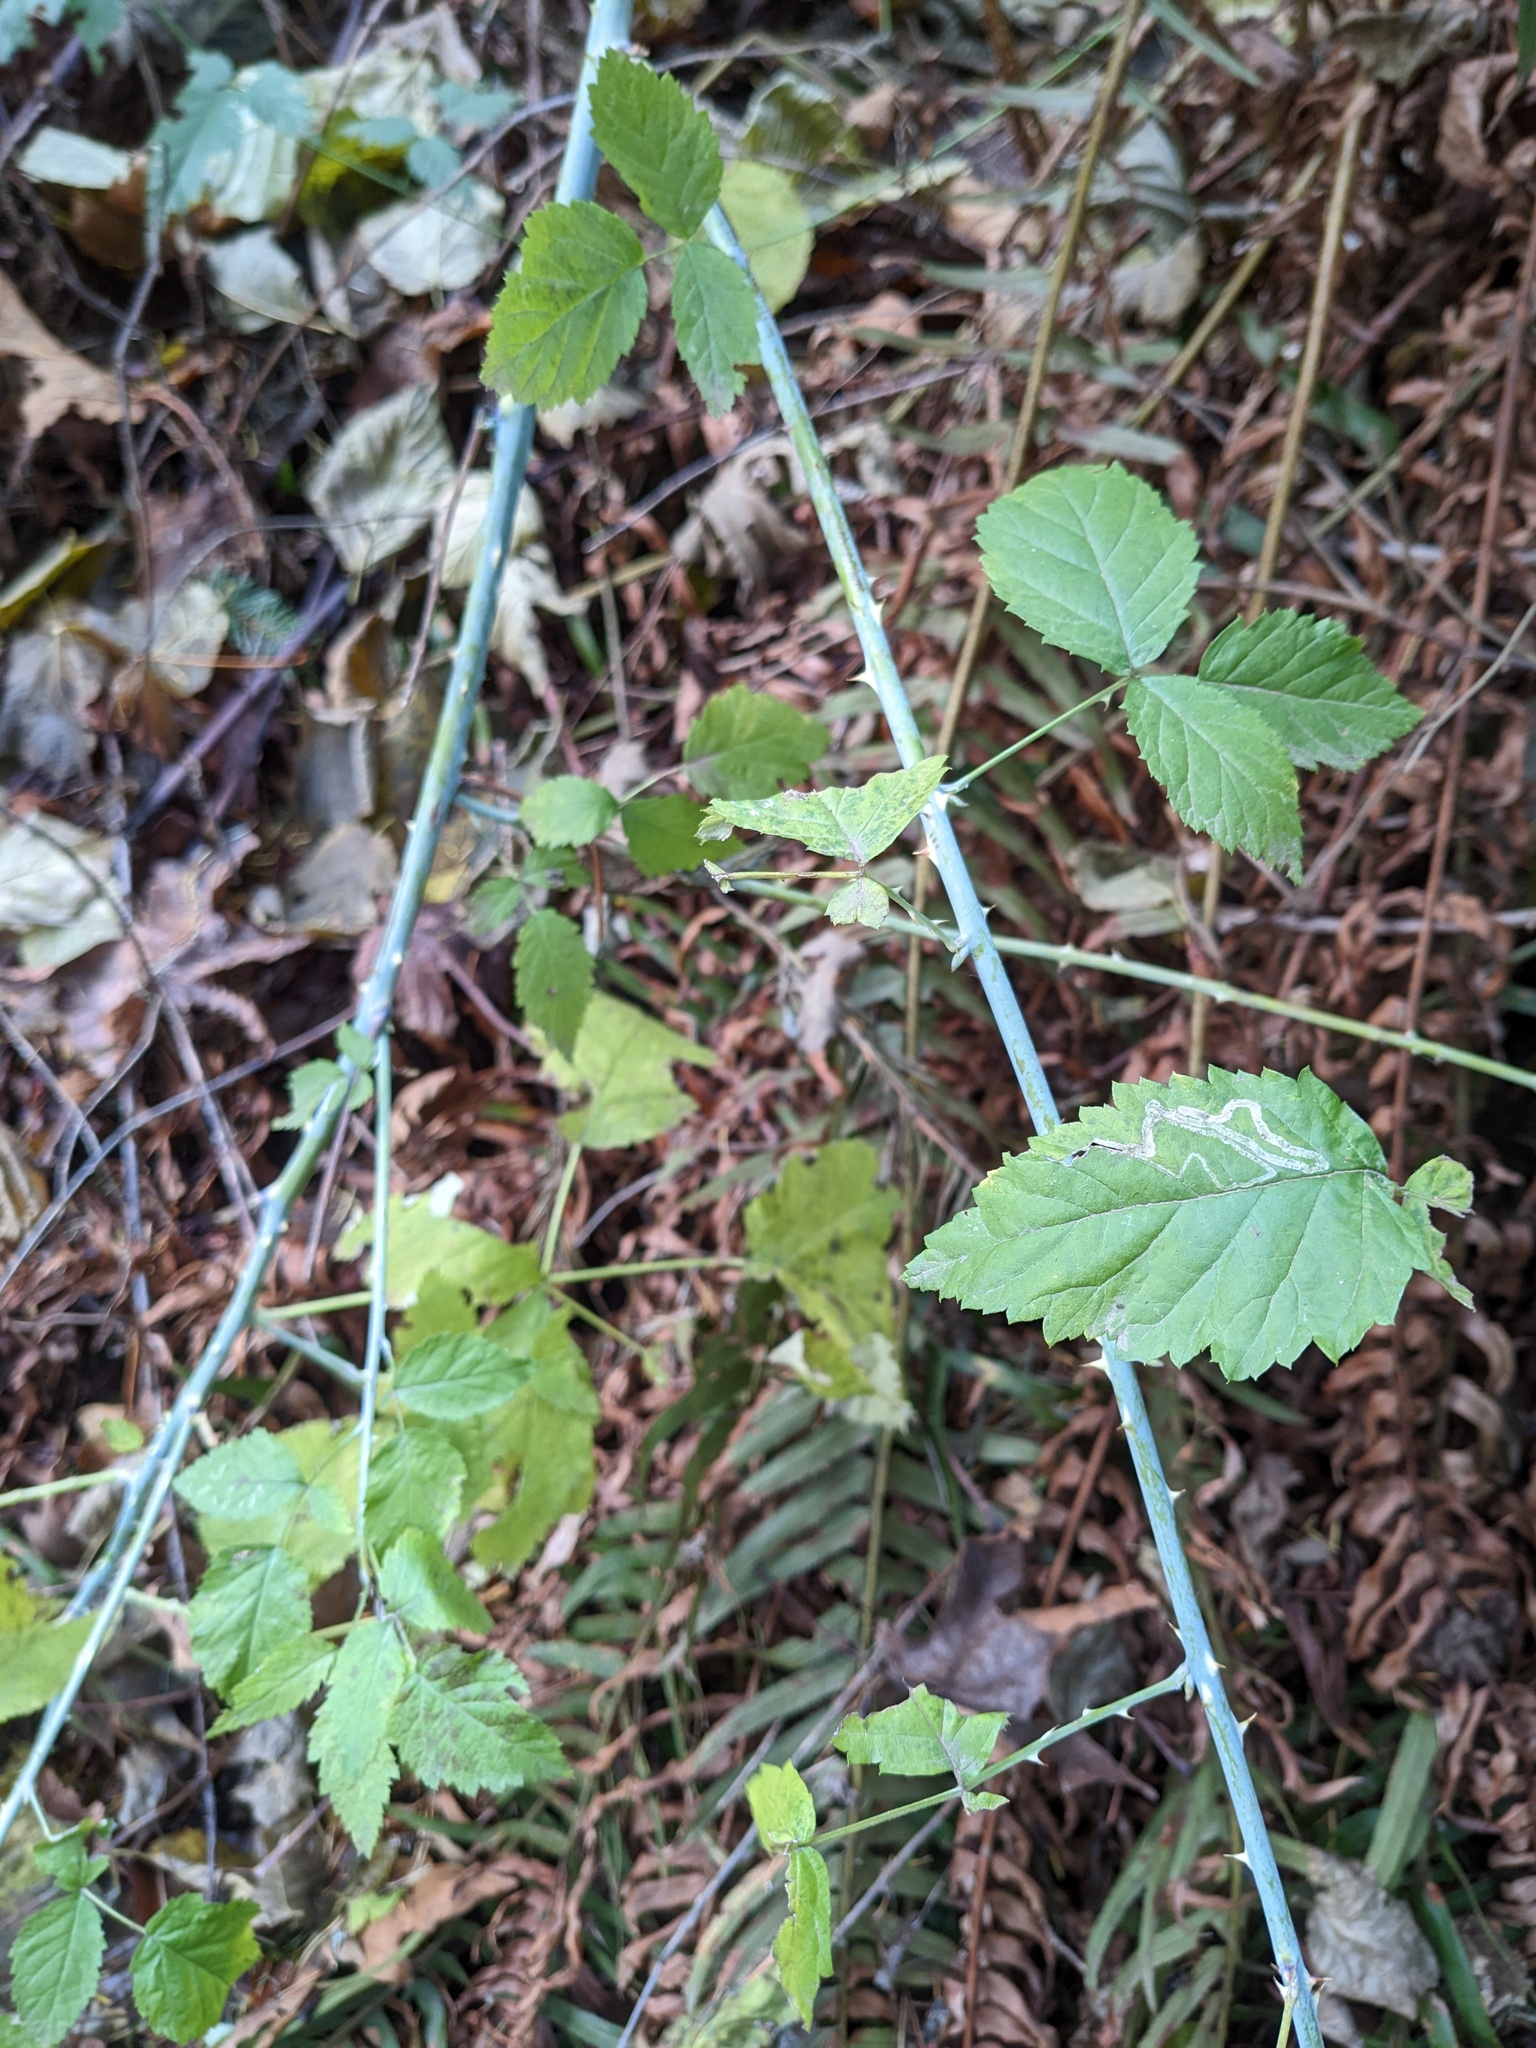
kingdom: Plantae
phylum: Tracheophyta
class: Magnoliopsida
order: Rosales
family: Rosaceae
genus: Rubus
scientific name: Rubus ursinus
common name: Pacific blackberry
